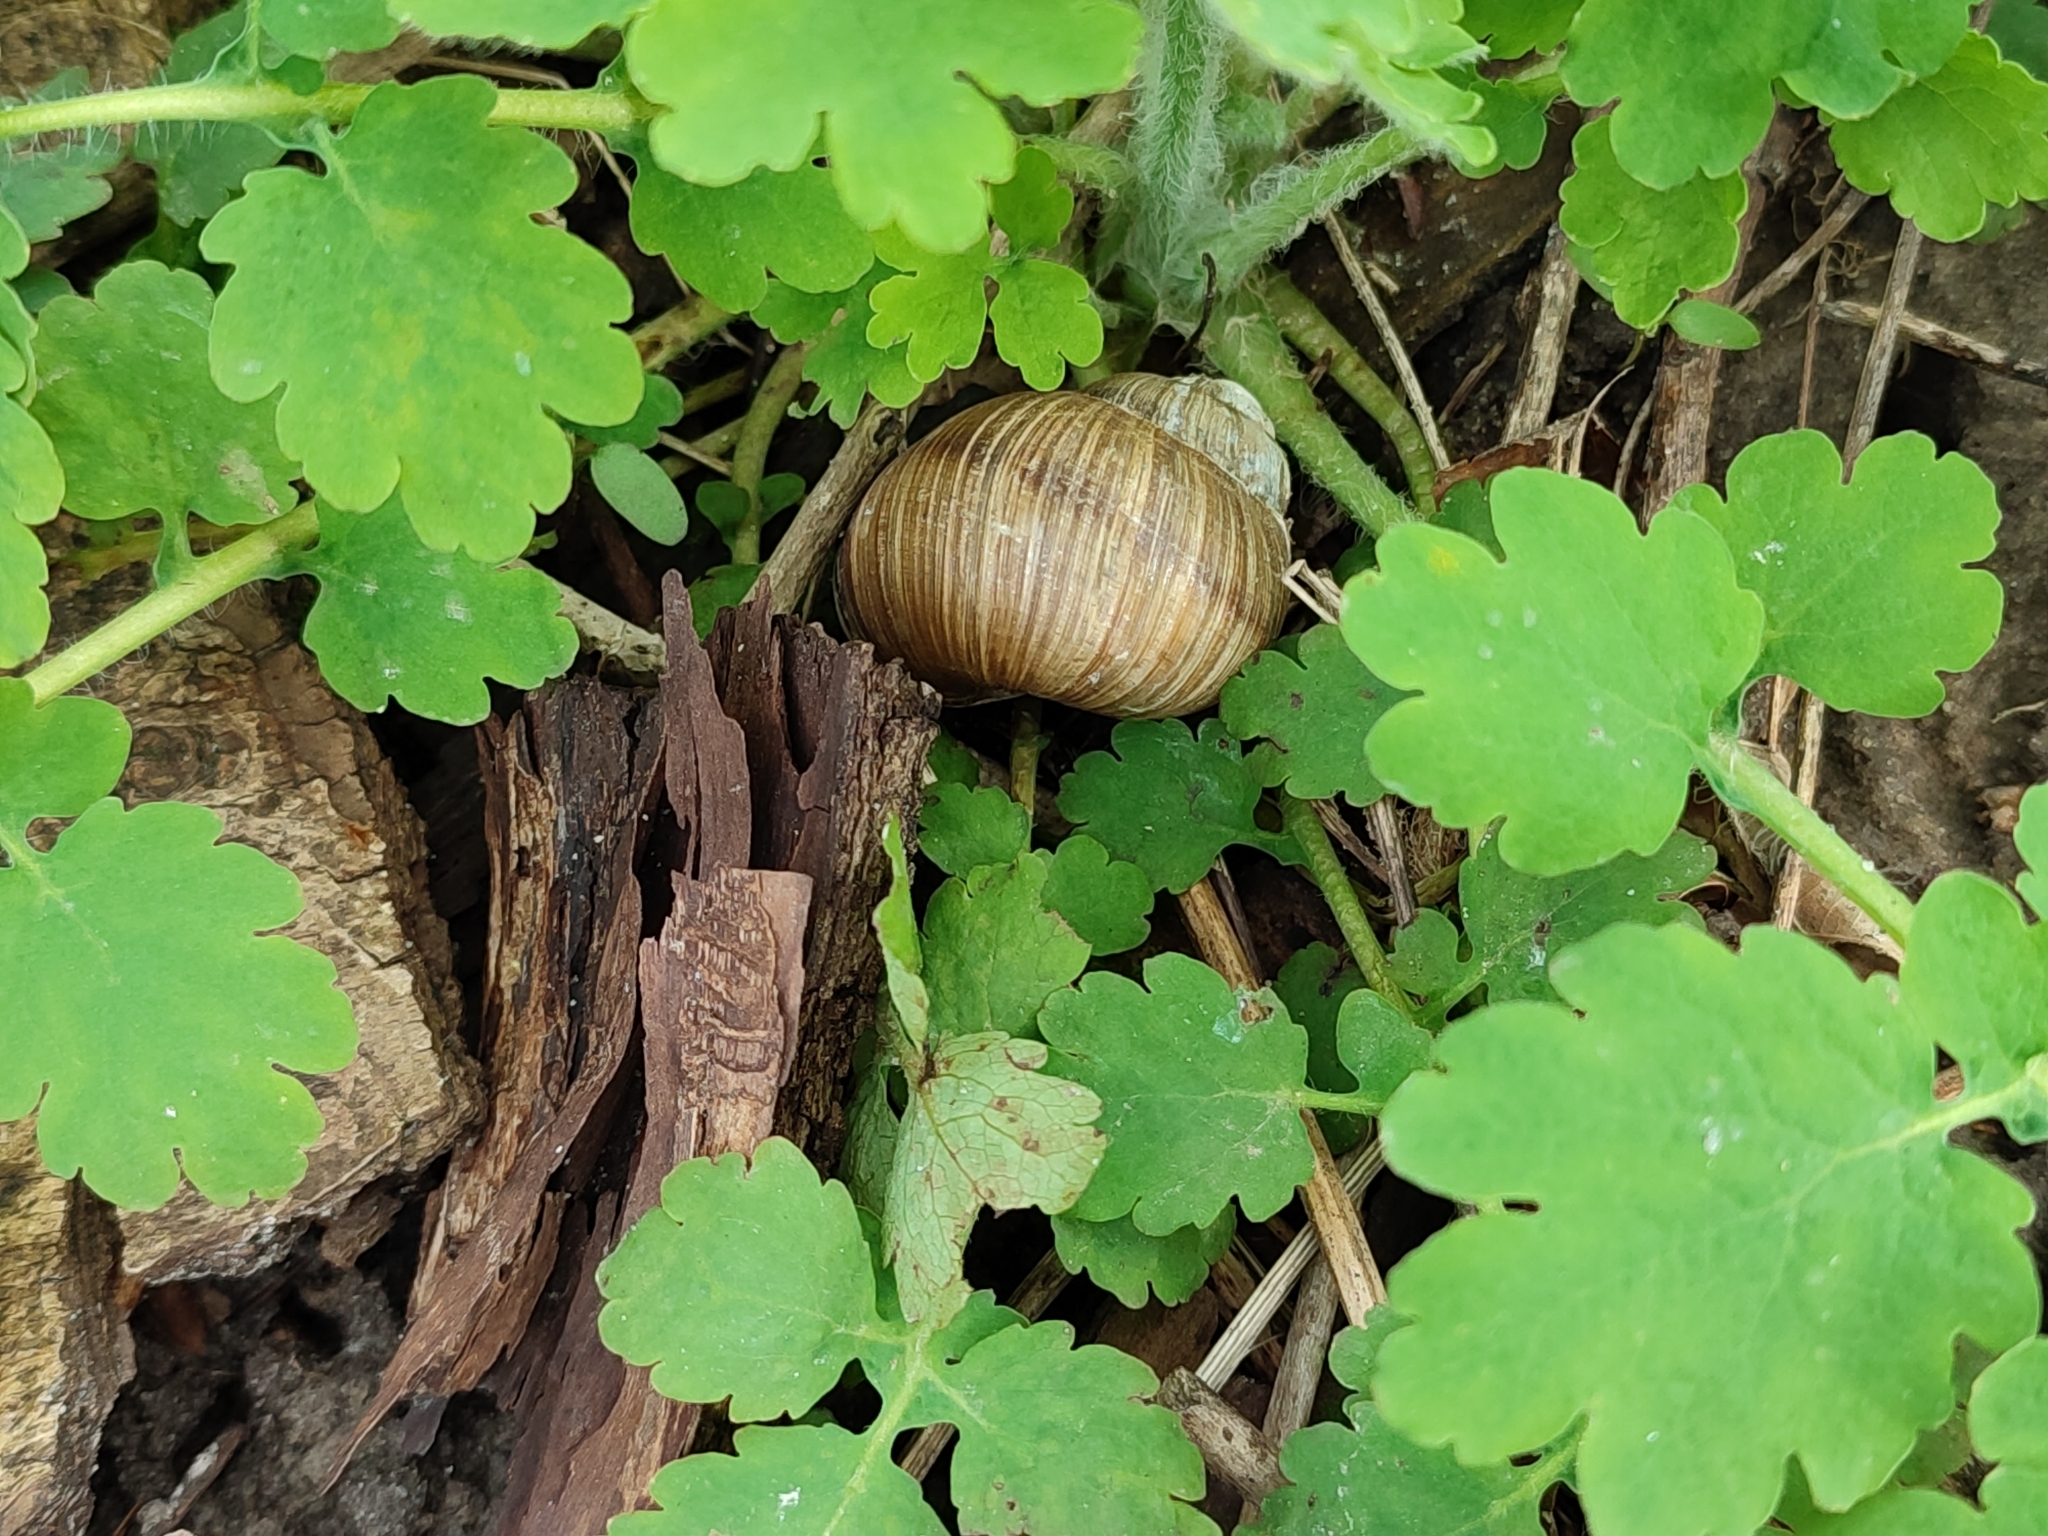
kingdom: Animalia
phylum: Mollusca
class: Gastropoda
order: Stylommatophora
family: Helicidae
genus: Helix
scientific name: Helix pomatia
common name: Roman snail
